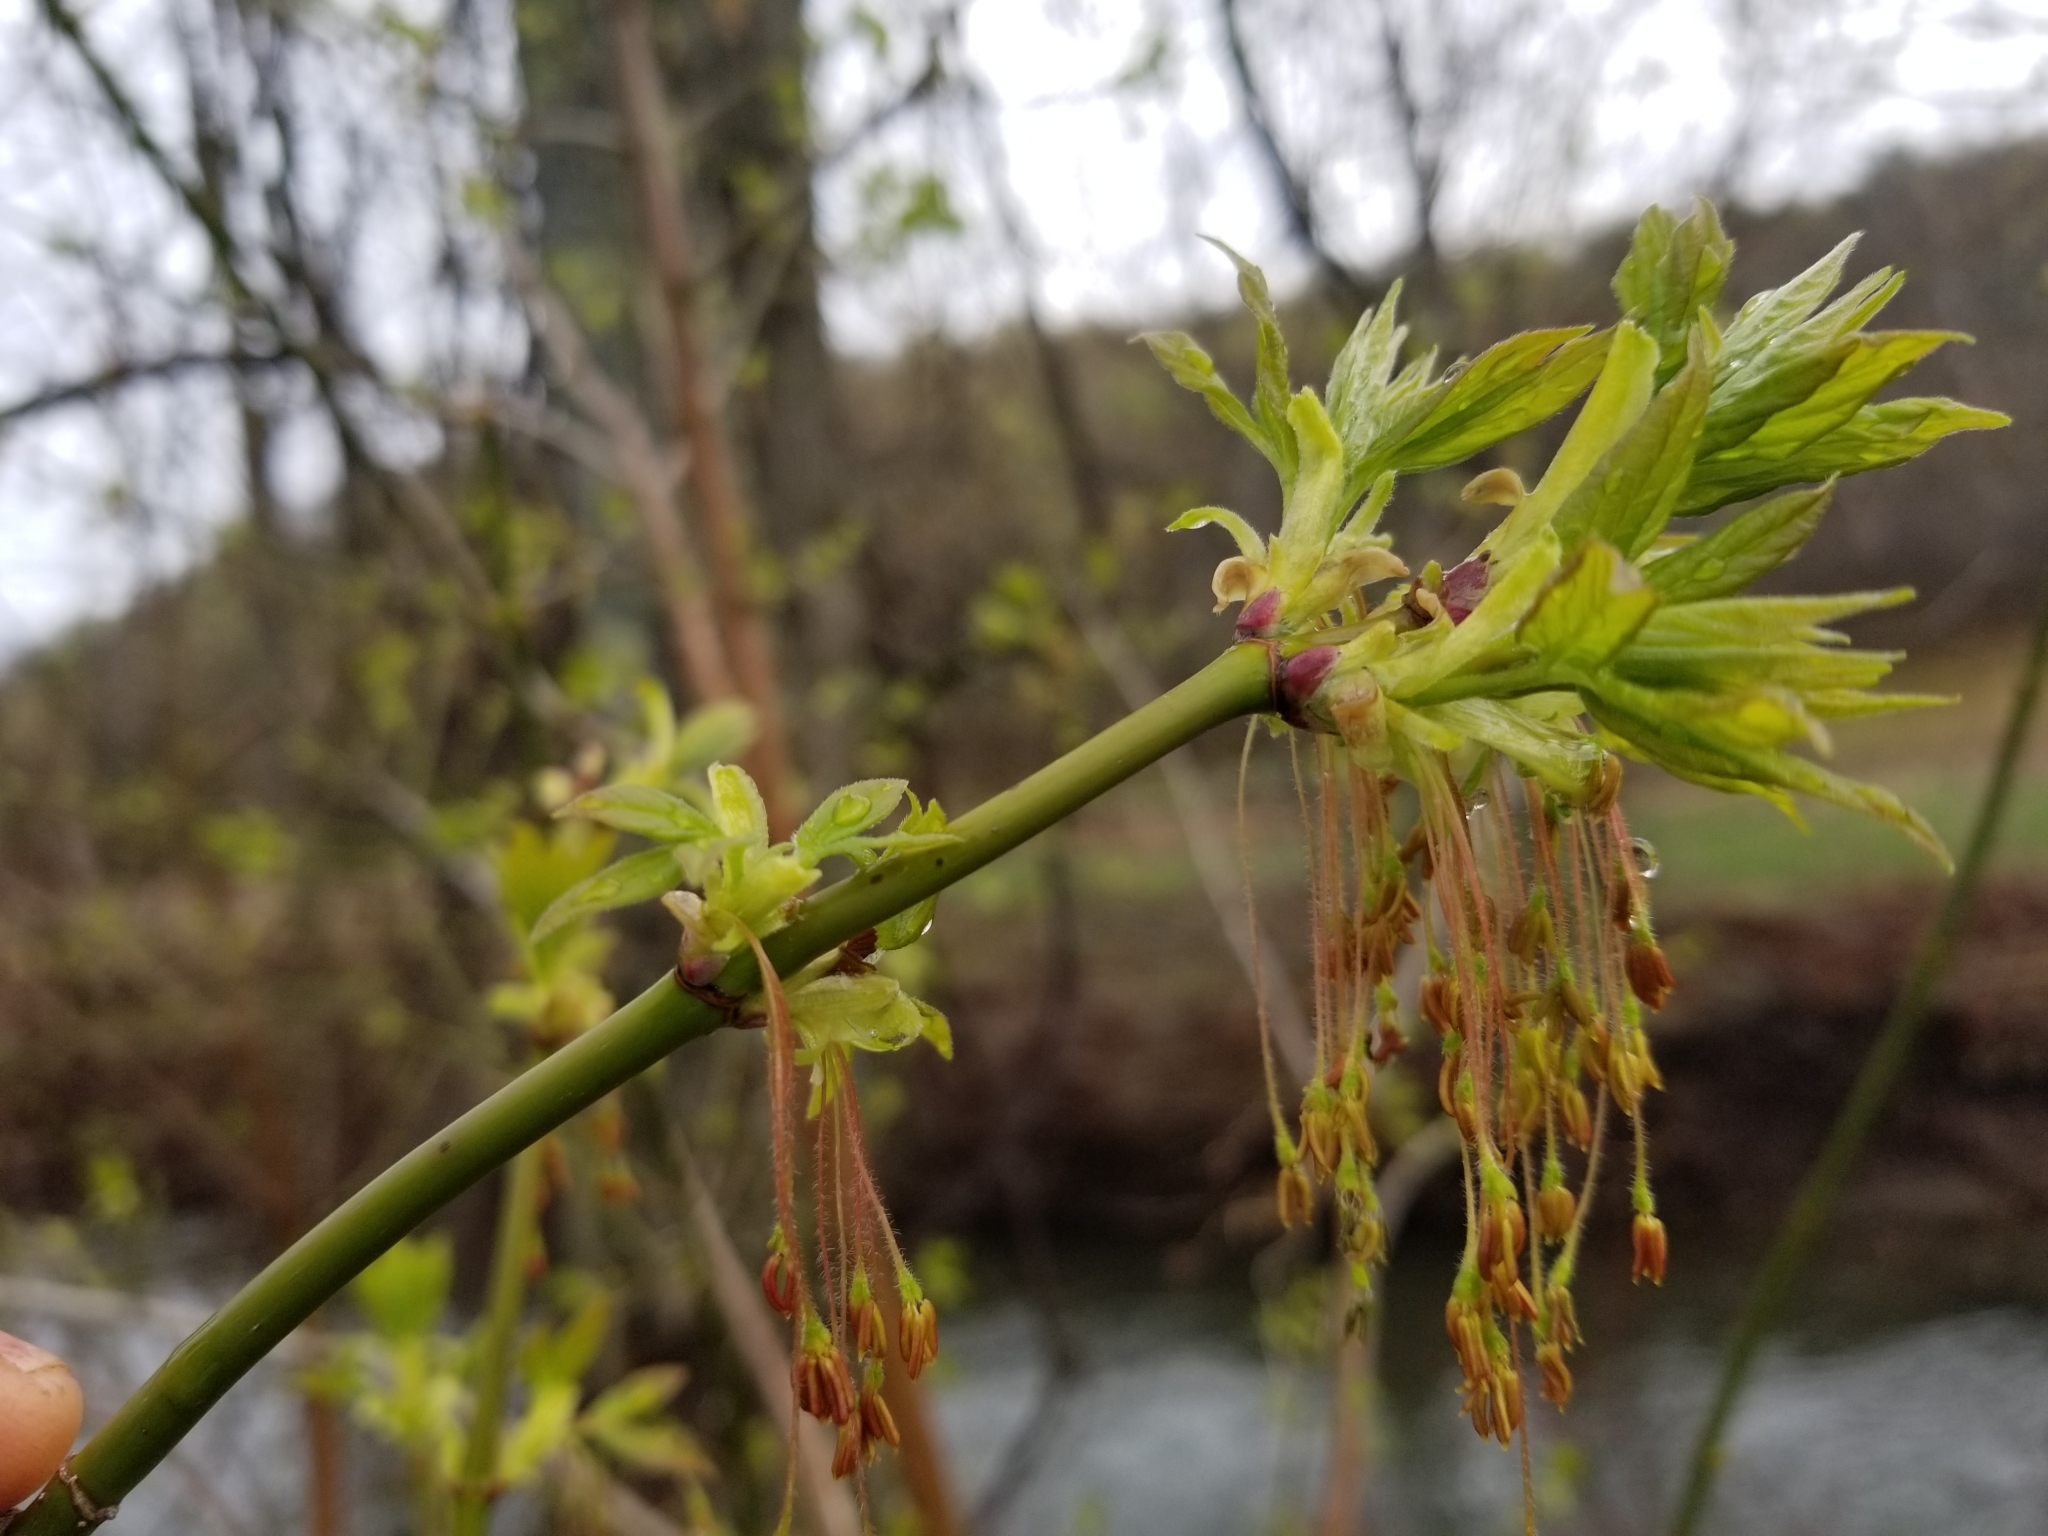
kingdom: Plantae
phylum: Tracheophyta
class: Magnoliopsida
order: Sapindales
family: Sapindaceae
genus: Acer
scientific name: Acer negundo
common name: Ashleaf maple
